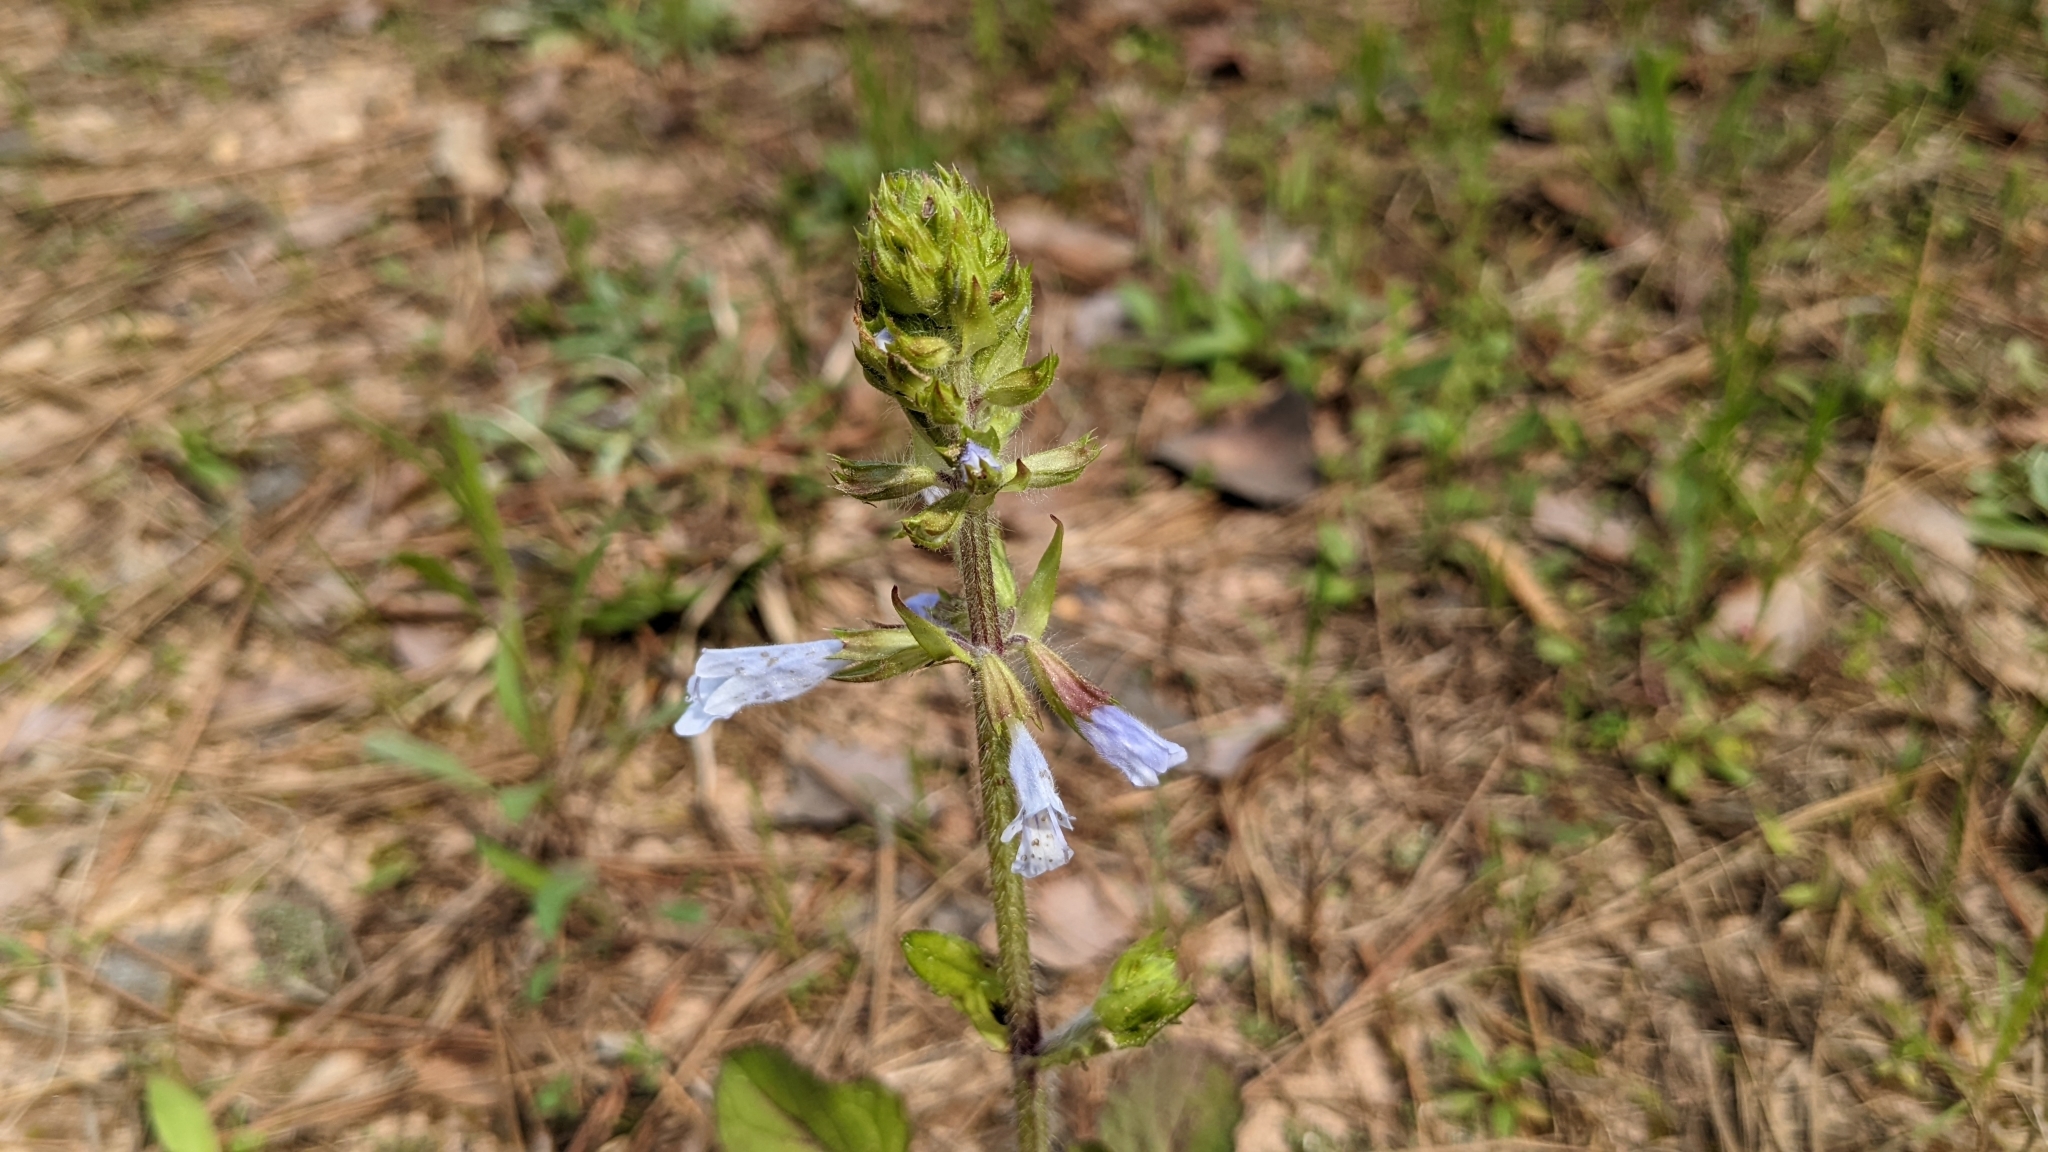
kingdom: Plantae
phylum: Tracheophyta
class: Magnoliopsida
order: Lamiales
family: Lamiaceae
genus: Salvia
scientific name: Salvia lyrata
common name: Cancerweed
